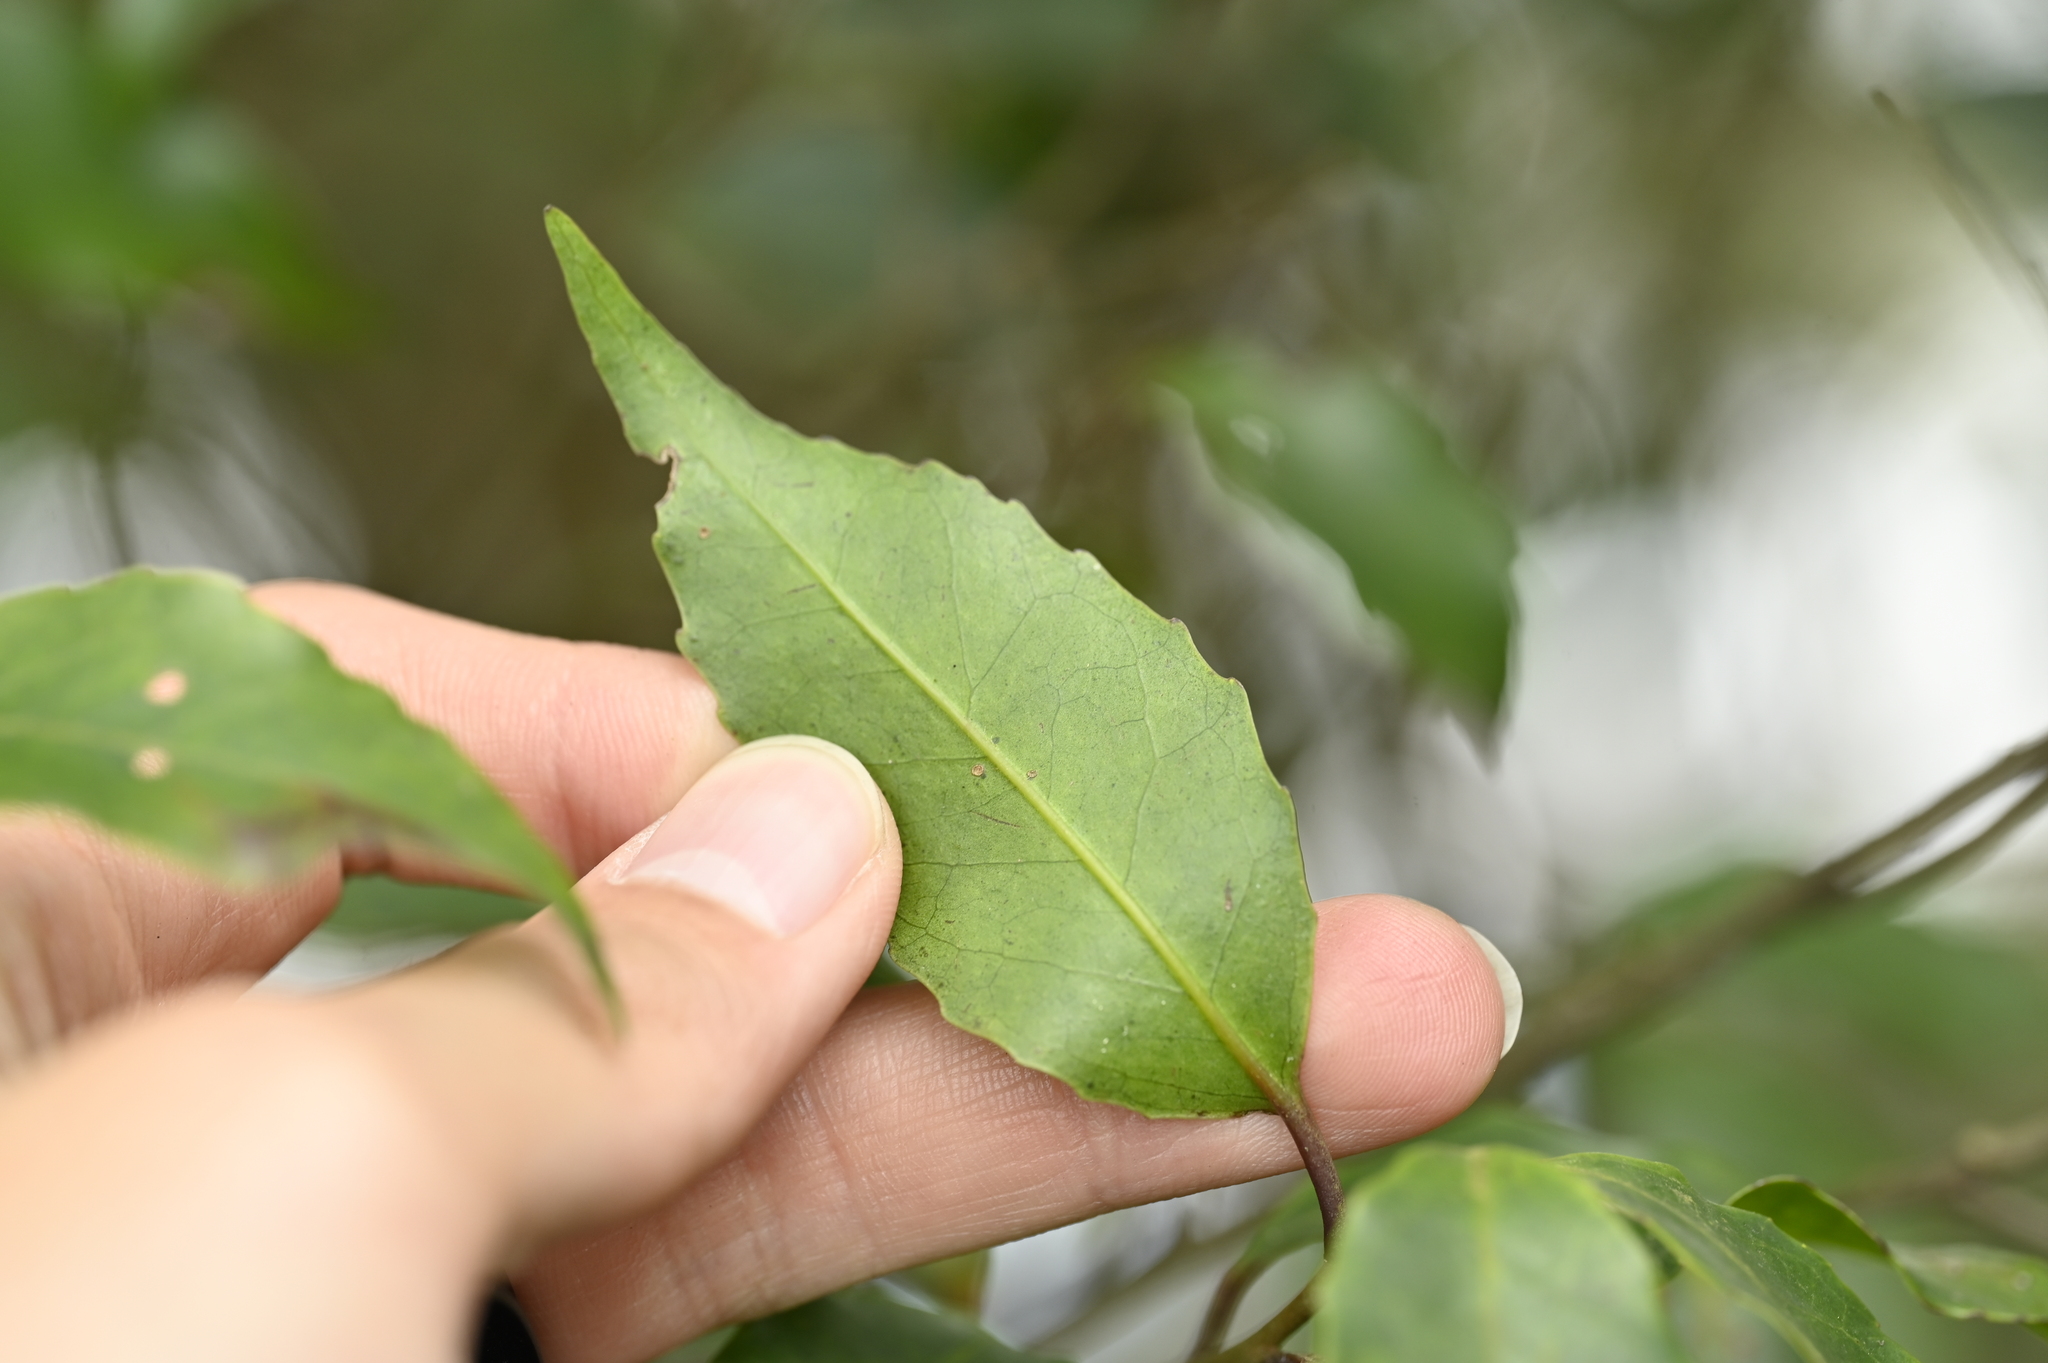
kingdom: Plantae
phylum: Tracheophyta
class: Magnoliopsida
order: Aquifoliales
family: Aquifoliaceae
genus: Ilex
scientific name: Ilex uraiensis
